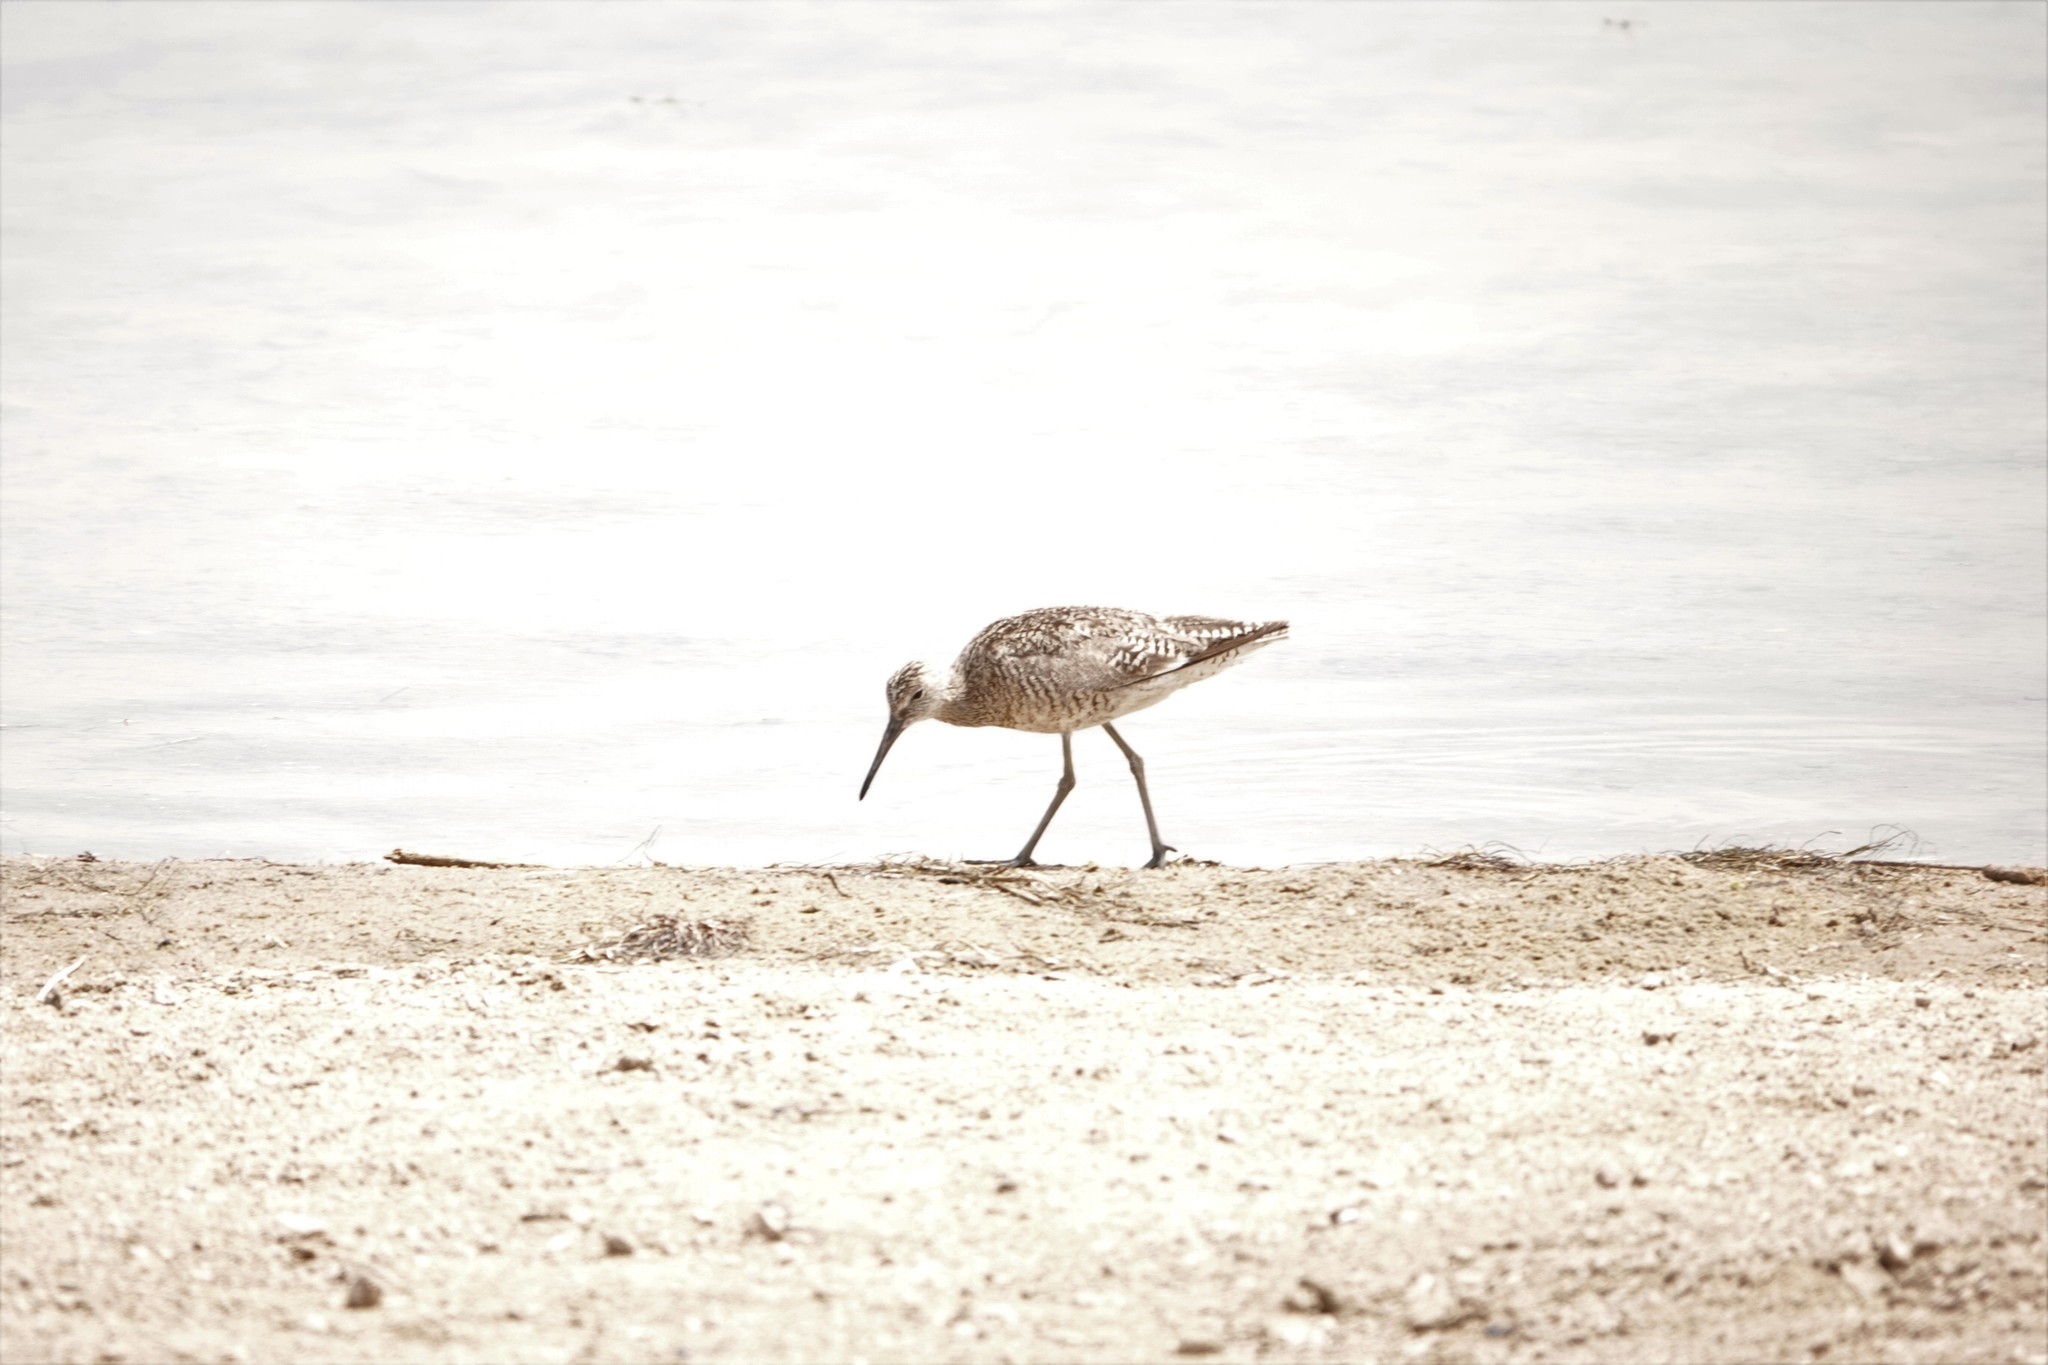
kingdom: Animalia
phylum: Chordata
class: Aves
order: Charadriiformes
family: Scolopacidae
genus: Tringa
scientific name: Tringa semipalmata
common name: Willet
